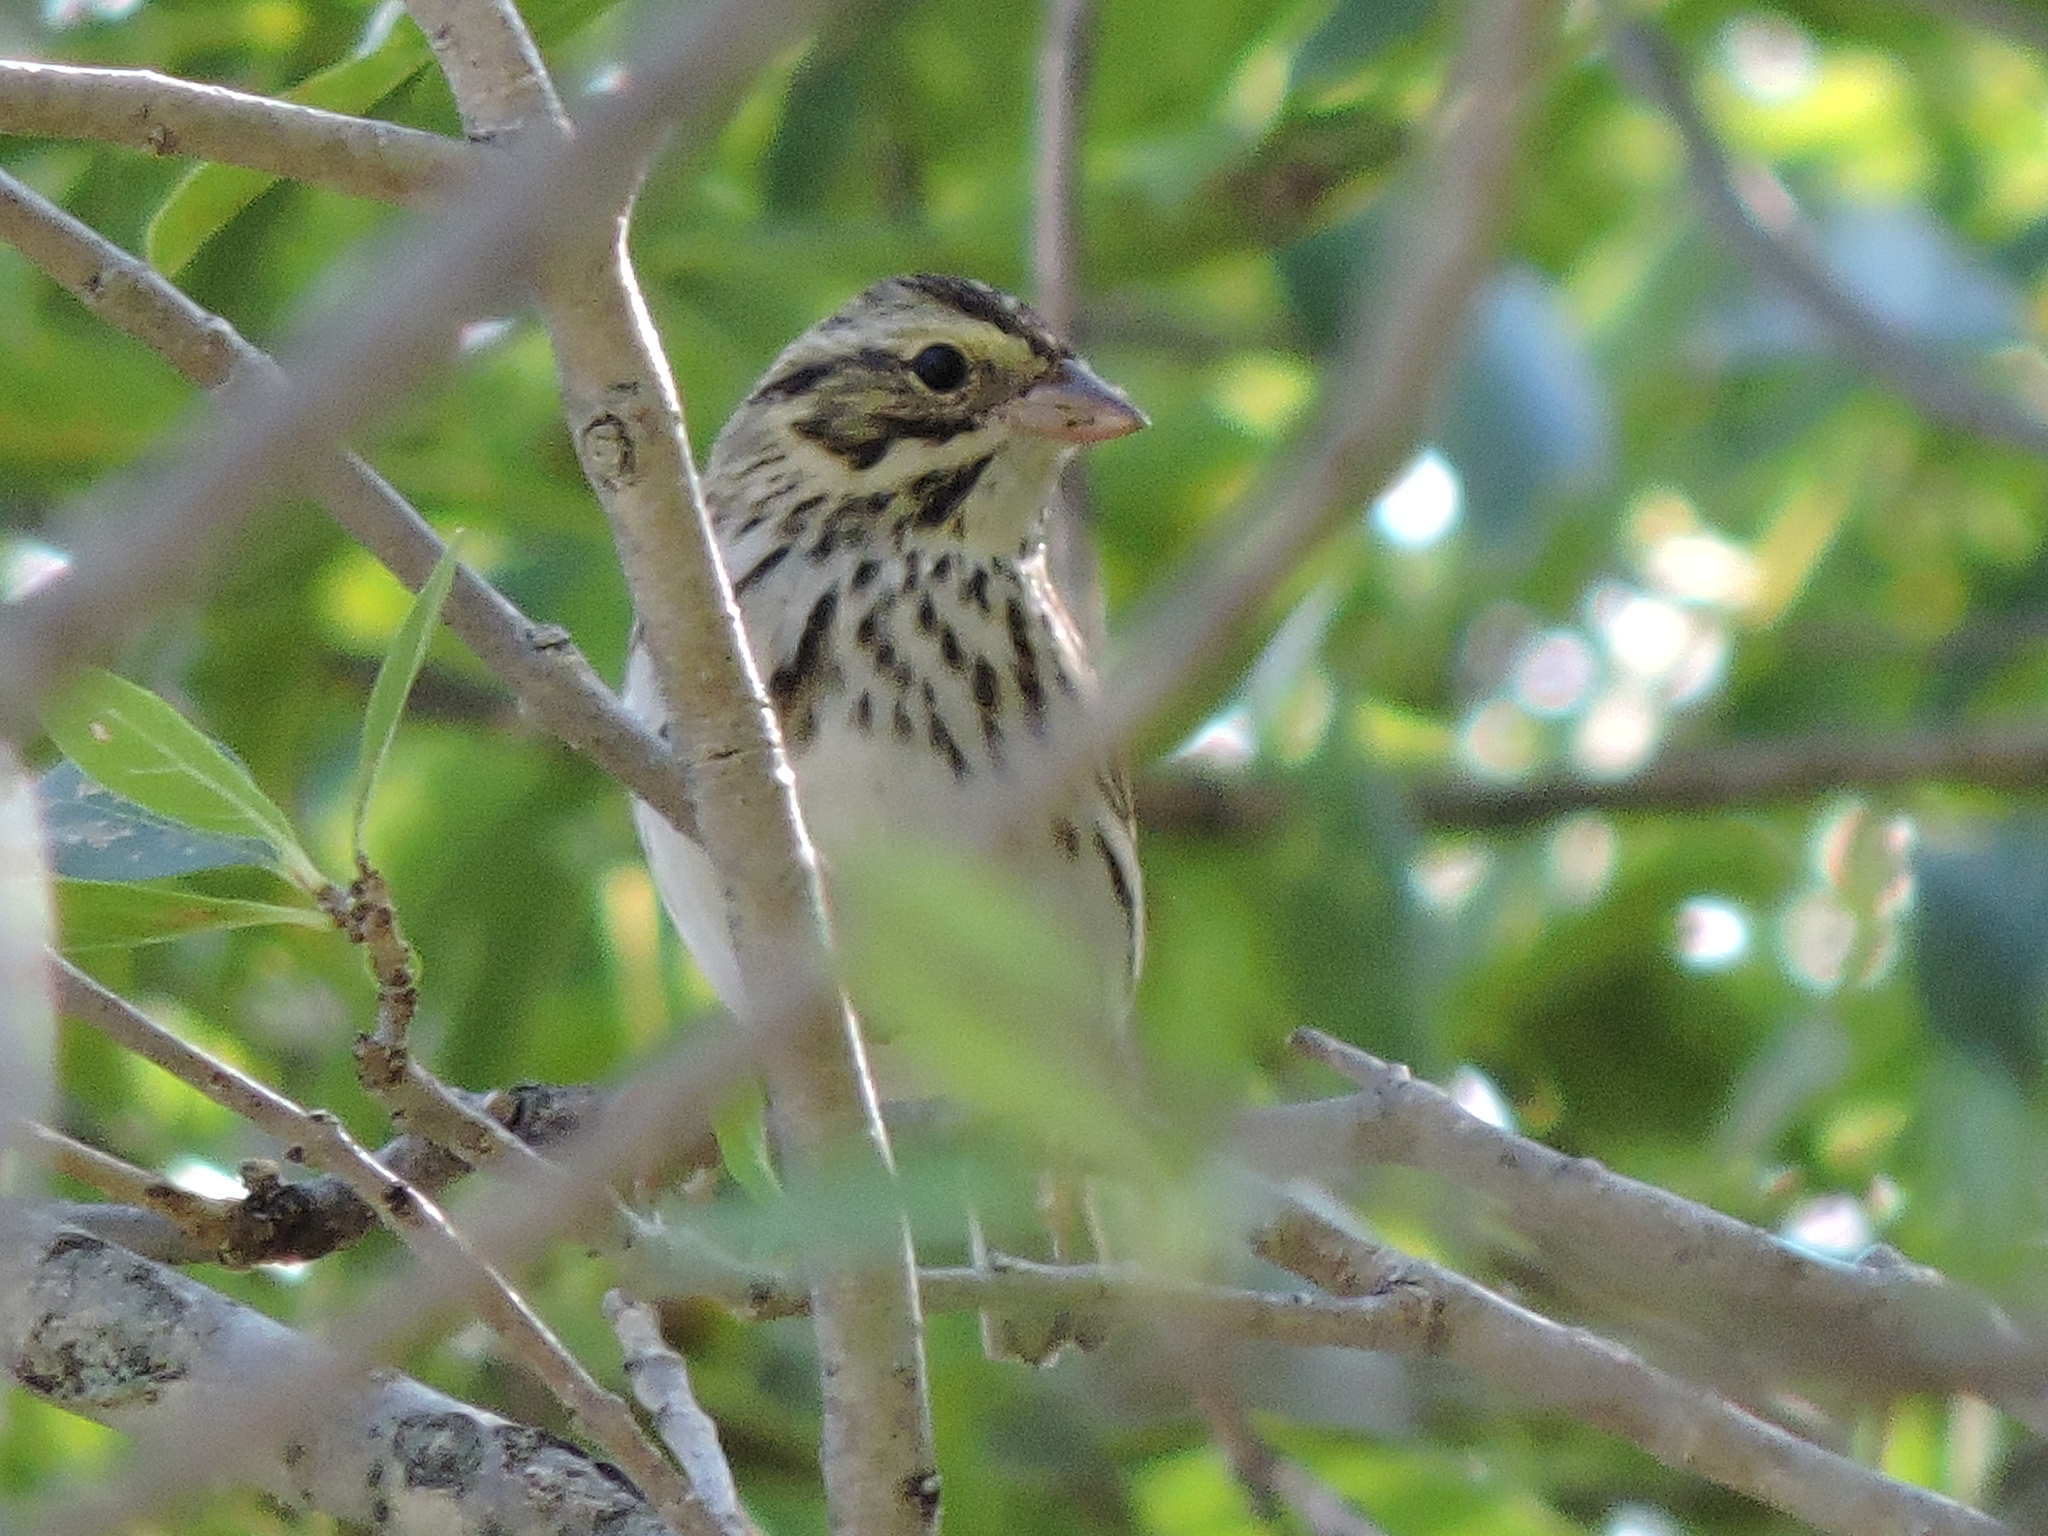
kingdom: Animalia
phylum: Chordata
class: Aves
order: Passeriformes
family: Passerellidae
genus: Passerculus
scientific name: Passerculus sandwichensis
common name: Savannah sparrow
